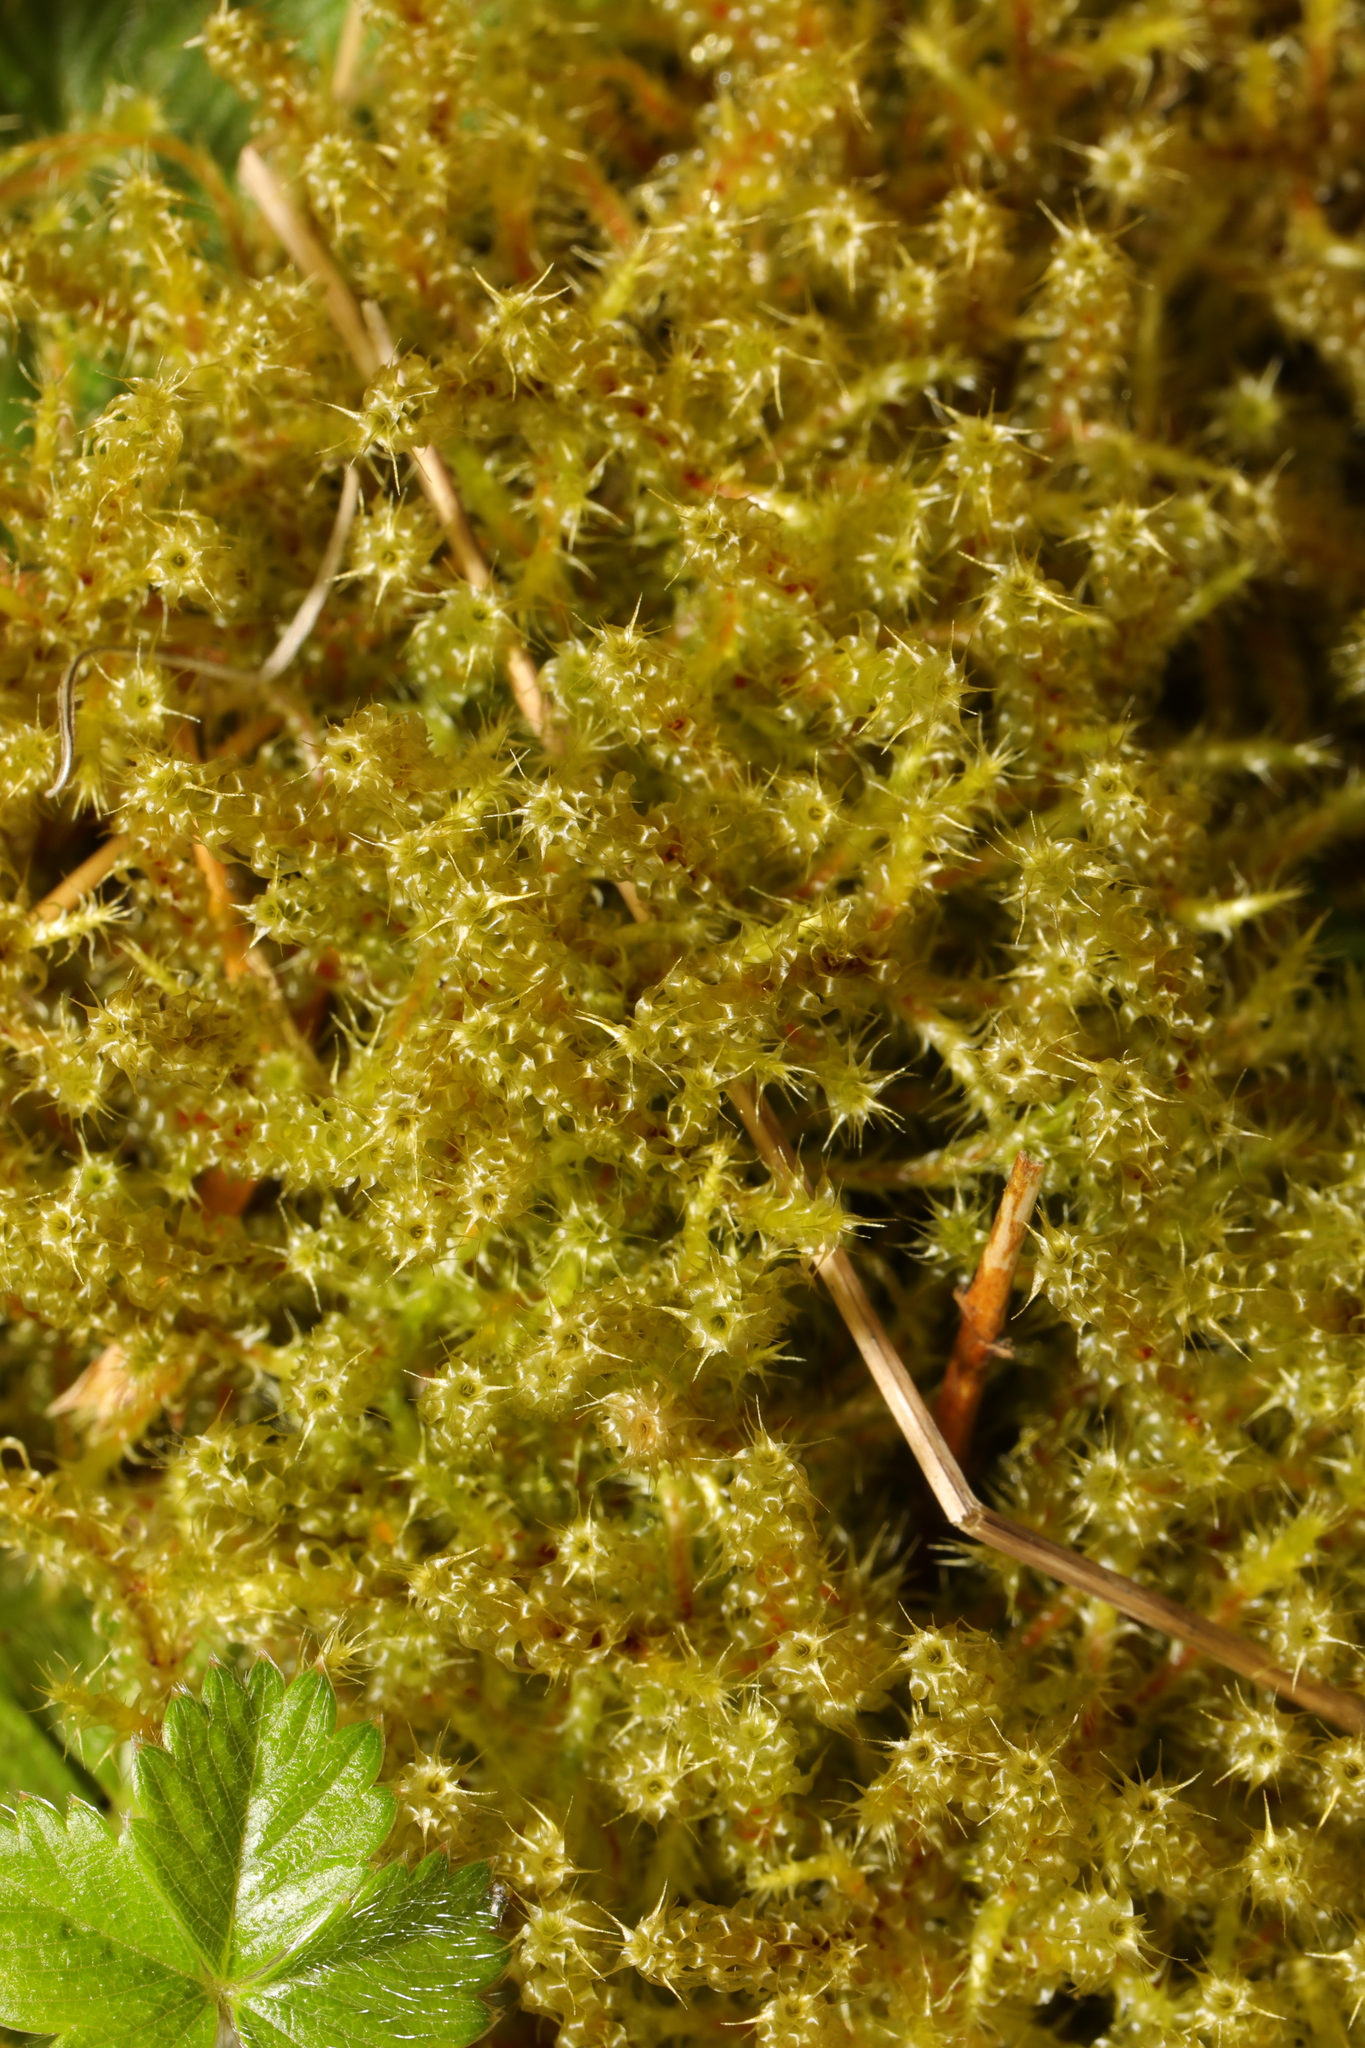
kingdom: Plantae
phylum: Bryophyta
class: Bryopsida
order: Hypnales
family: Hylocomiaceae
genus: Rhytidiadelphus
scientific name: Rhytidiadelphus squarrosus
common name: Springy turf-moss
